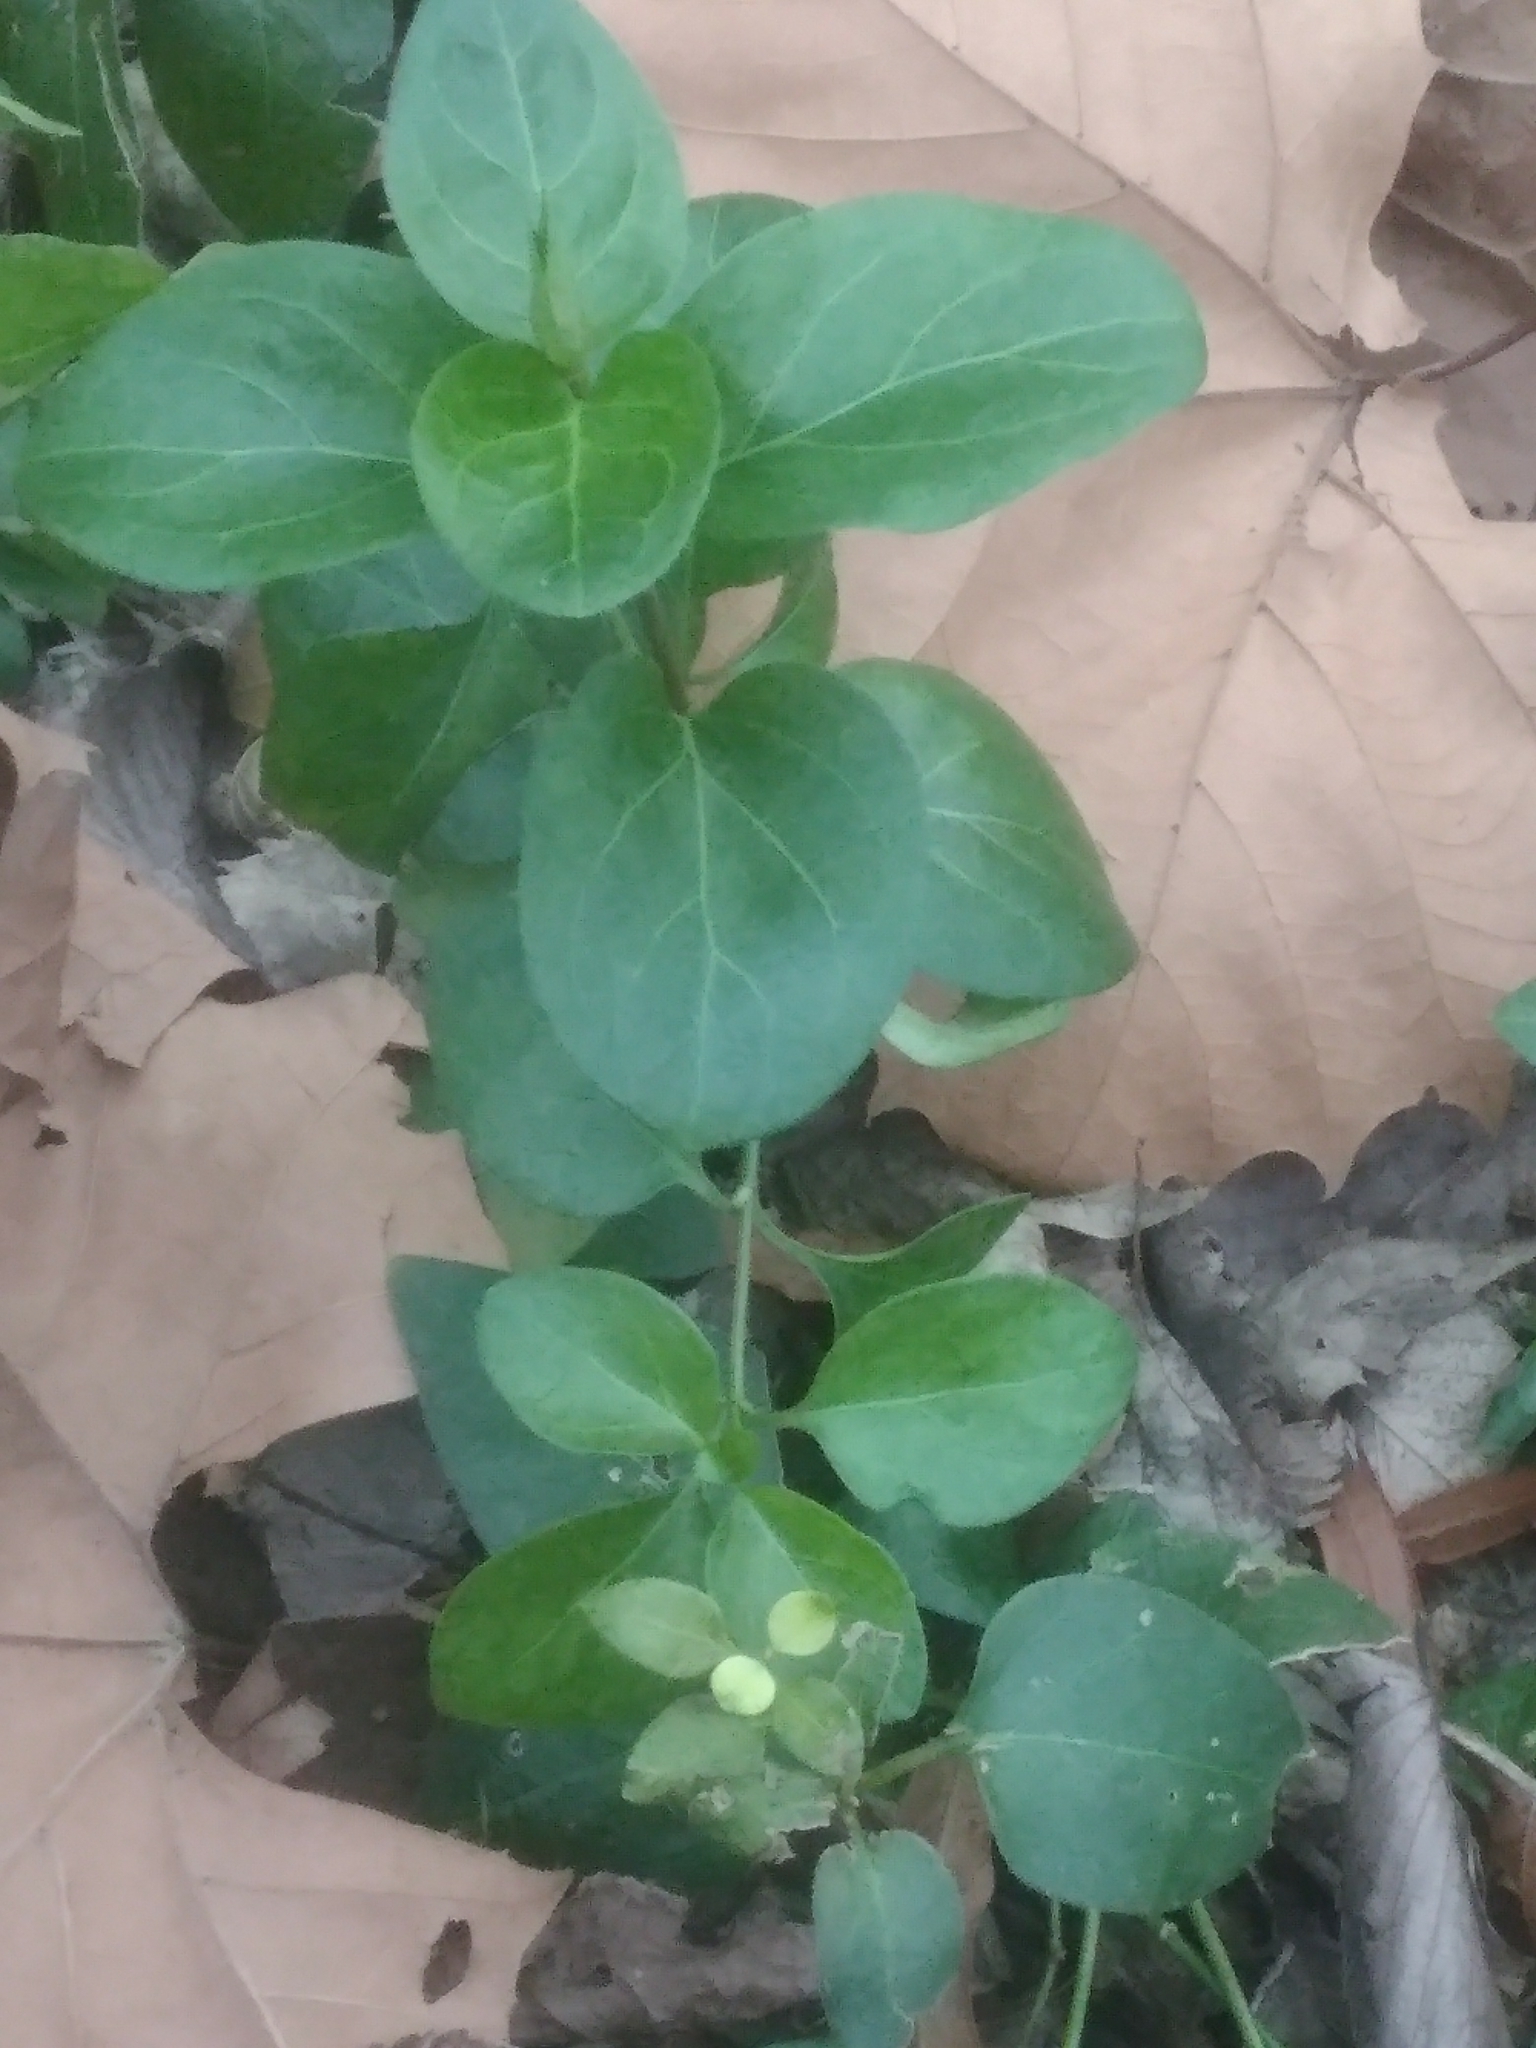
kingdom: Plantae
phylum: Tracheophyta
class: Magnoliopsida
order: Gentianales
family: Apocynaceae
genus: Vinca
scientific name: Vinca major
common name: Greater periwinkle
